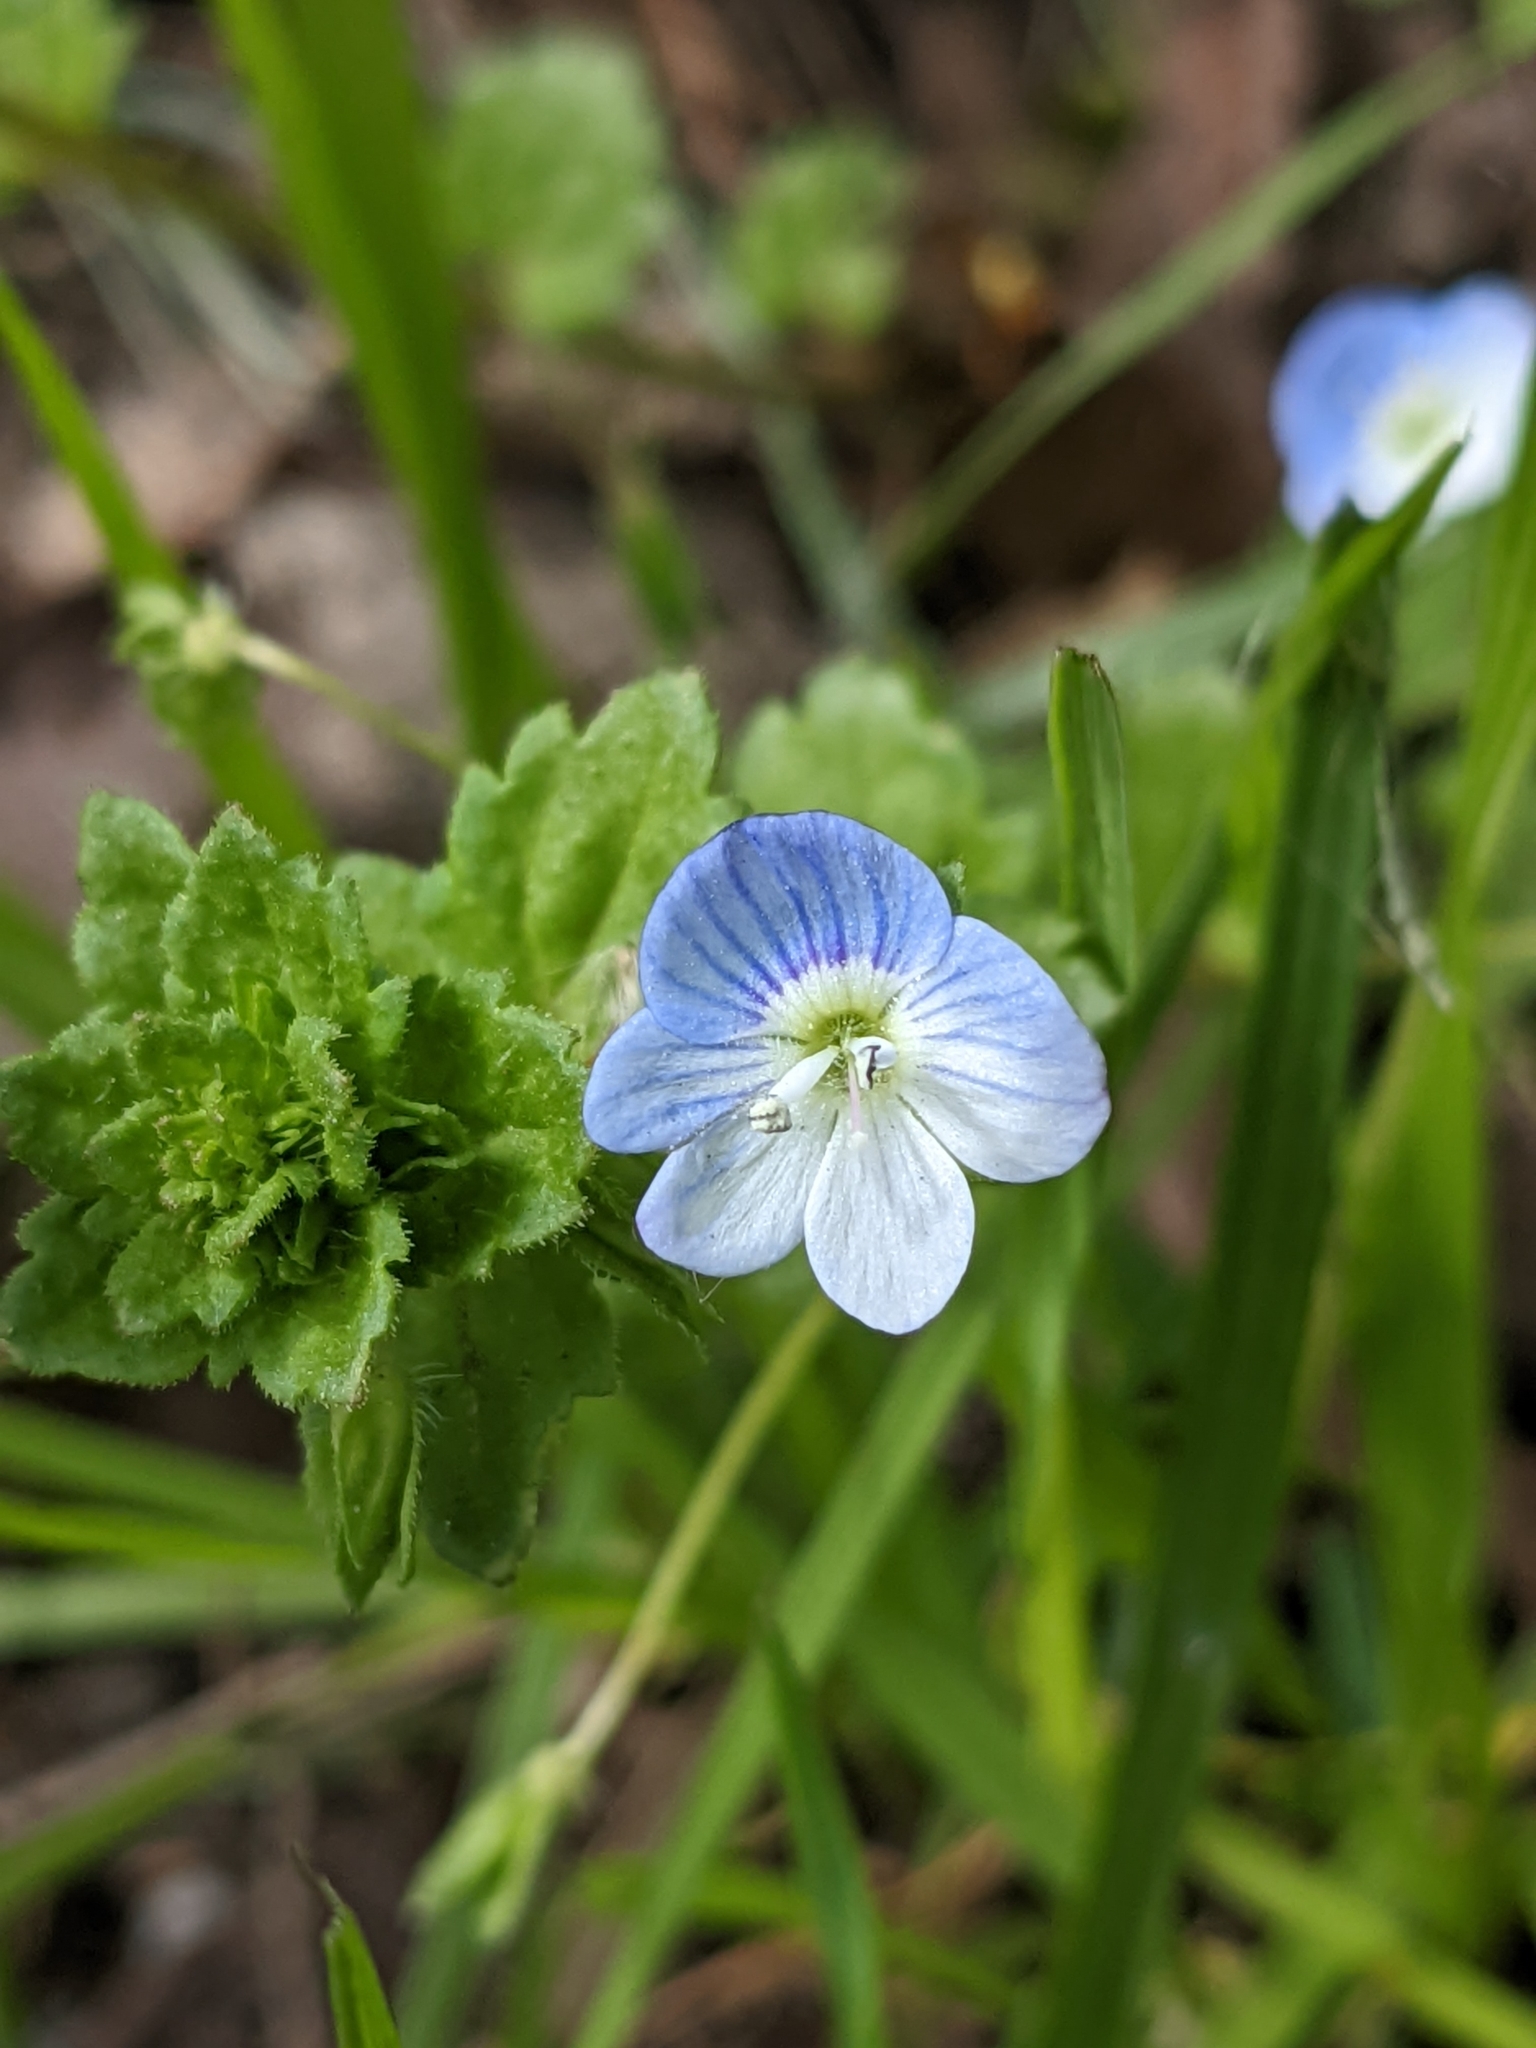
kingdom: Plantae
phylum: Tracheophyta
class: Magnoliopsida
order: Lamiales
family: Plantaginaceae
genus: Veronica
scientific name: Veronica persica
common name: Common field-speedwell
